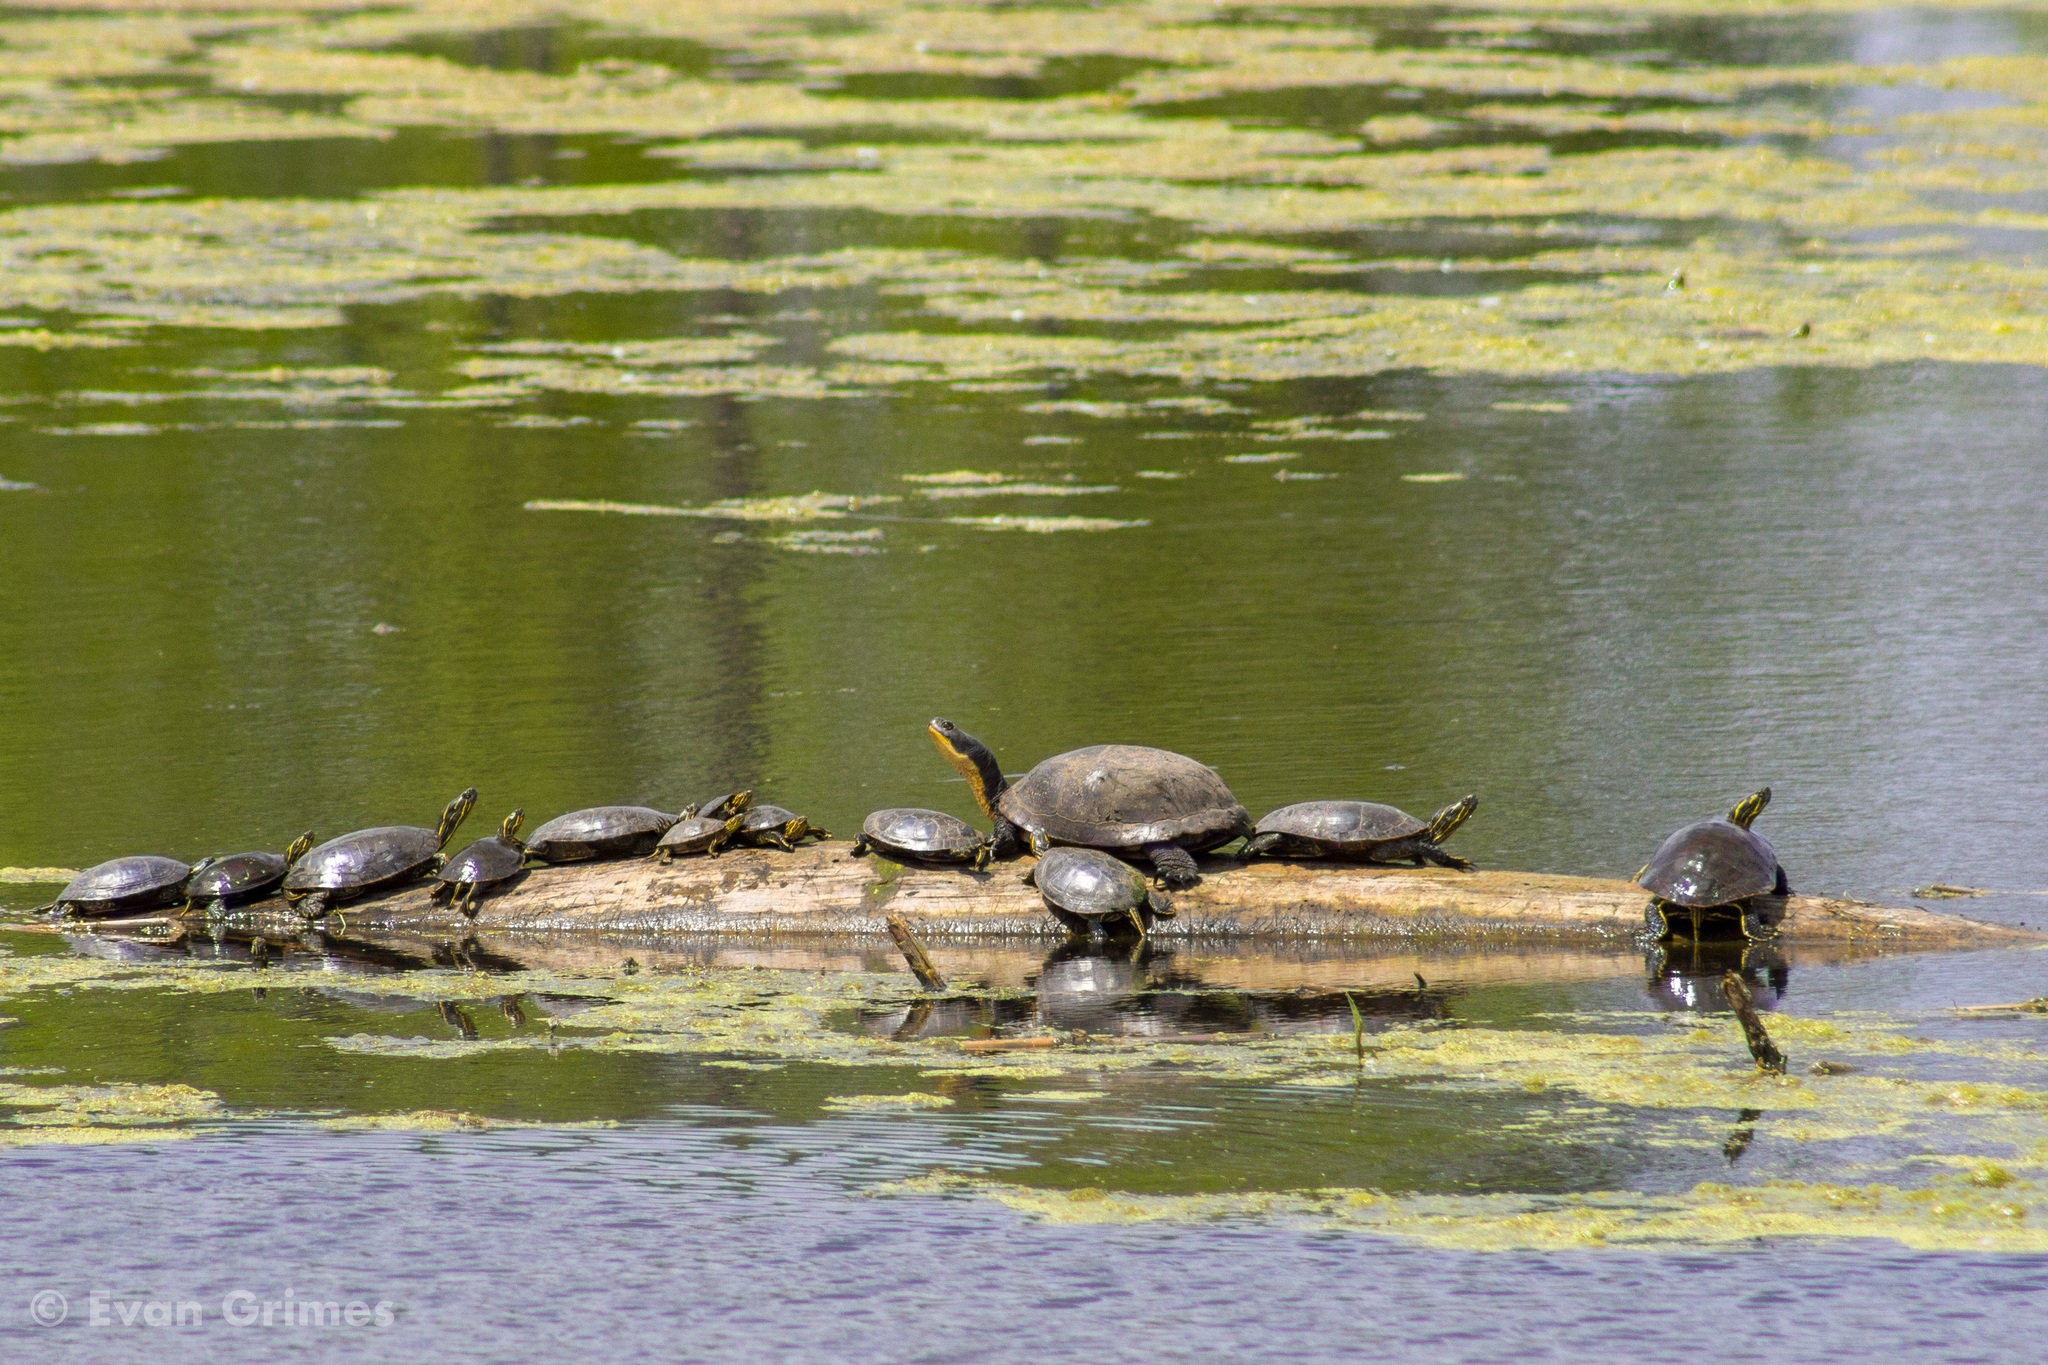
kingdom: Animalia
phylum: Chordata
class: Testudines
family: Emydidae
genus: Emys
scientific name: Emys blandingii
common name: Blanding's turtle
